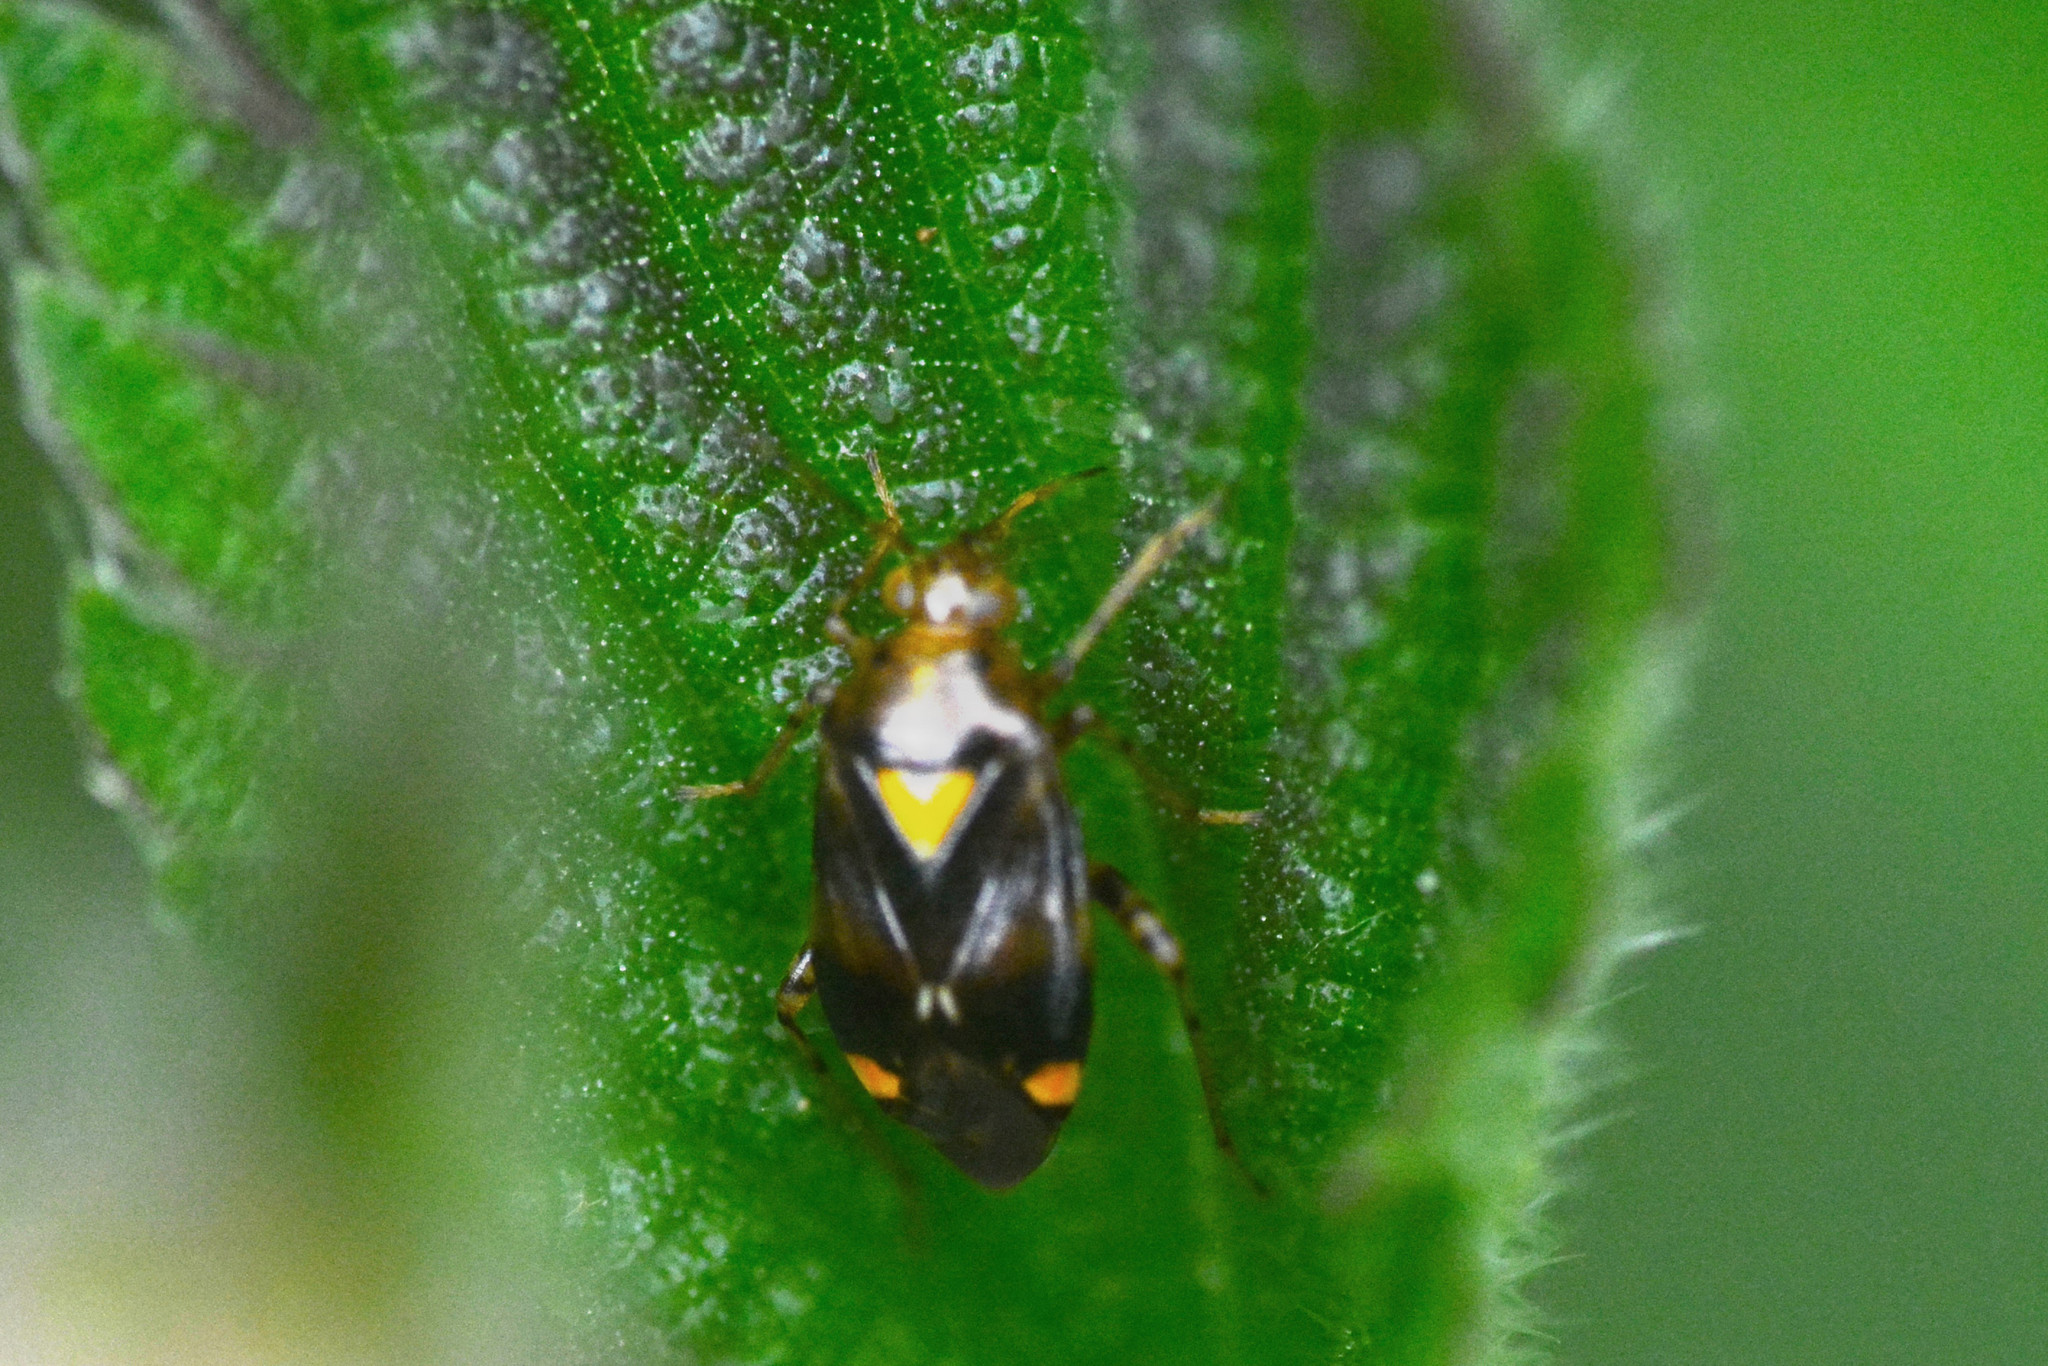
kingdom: Animalia
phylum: Arthropoda
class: Insecta
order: Hemiptera
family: Miridae
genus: Liocoris
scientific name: Liocoris tripustulatus
